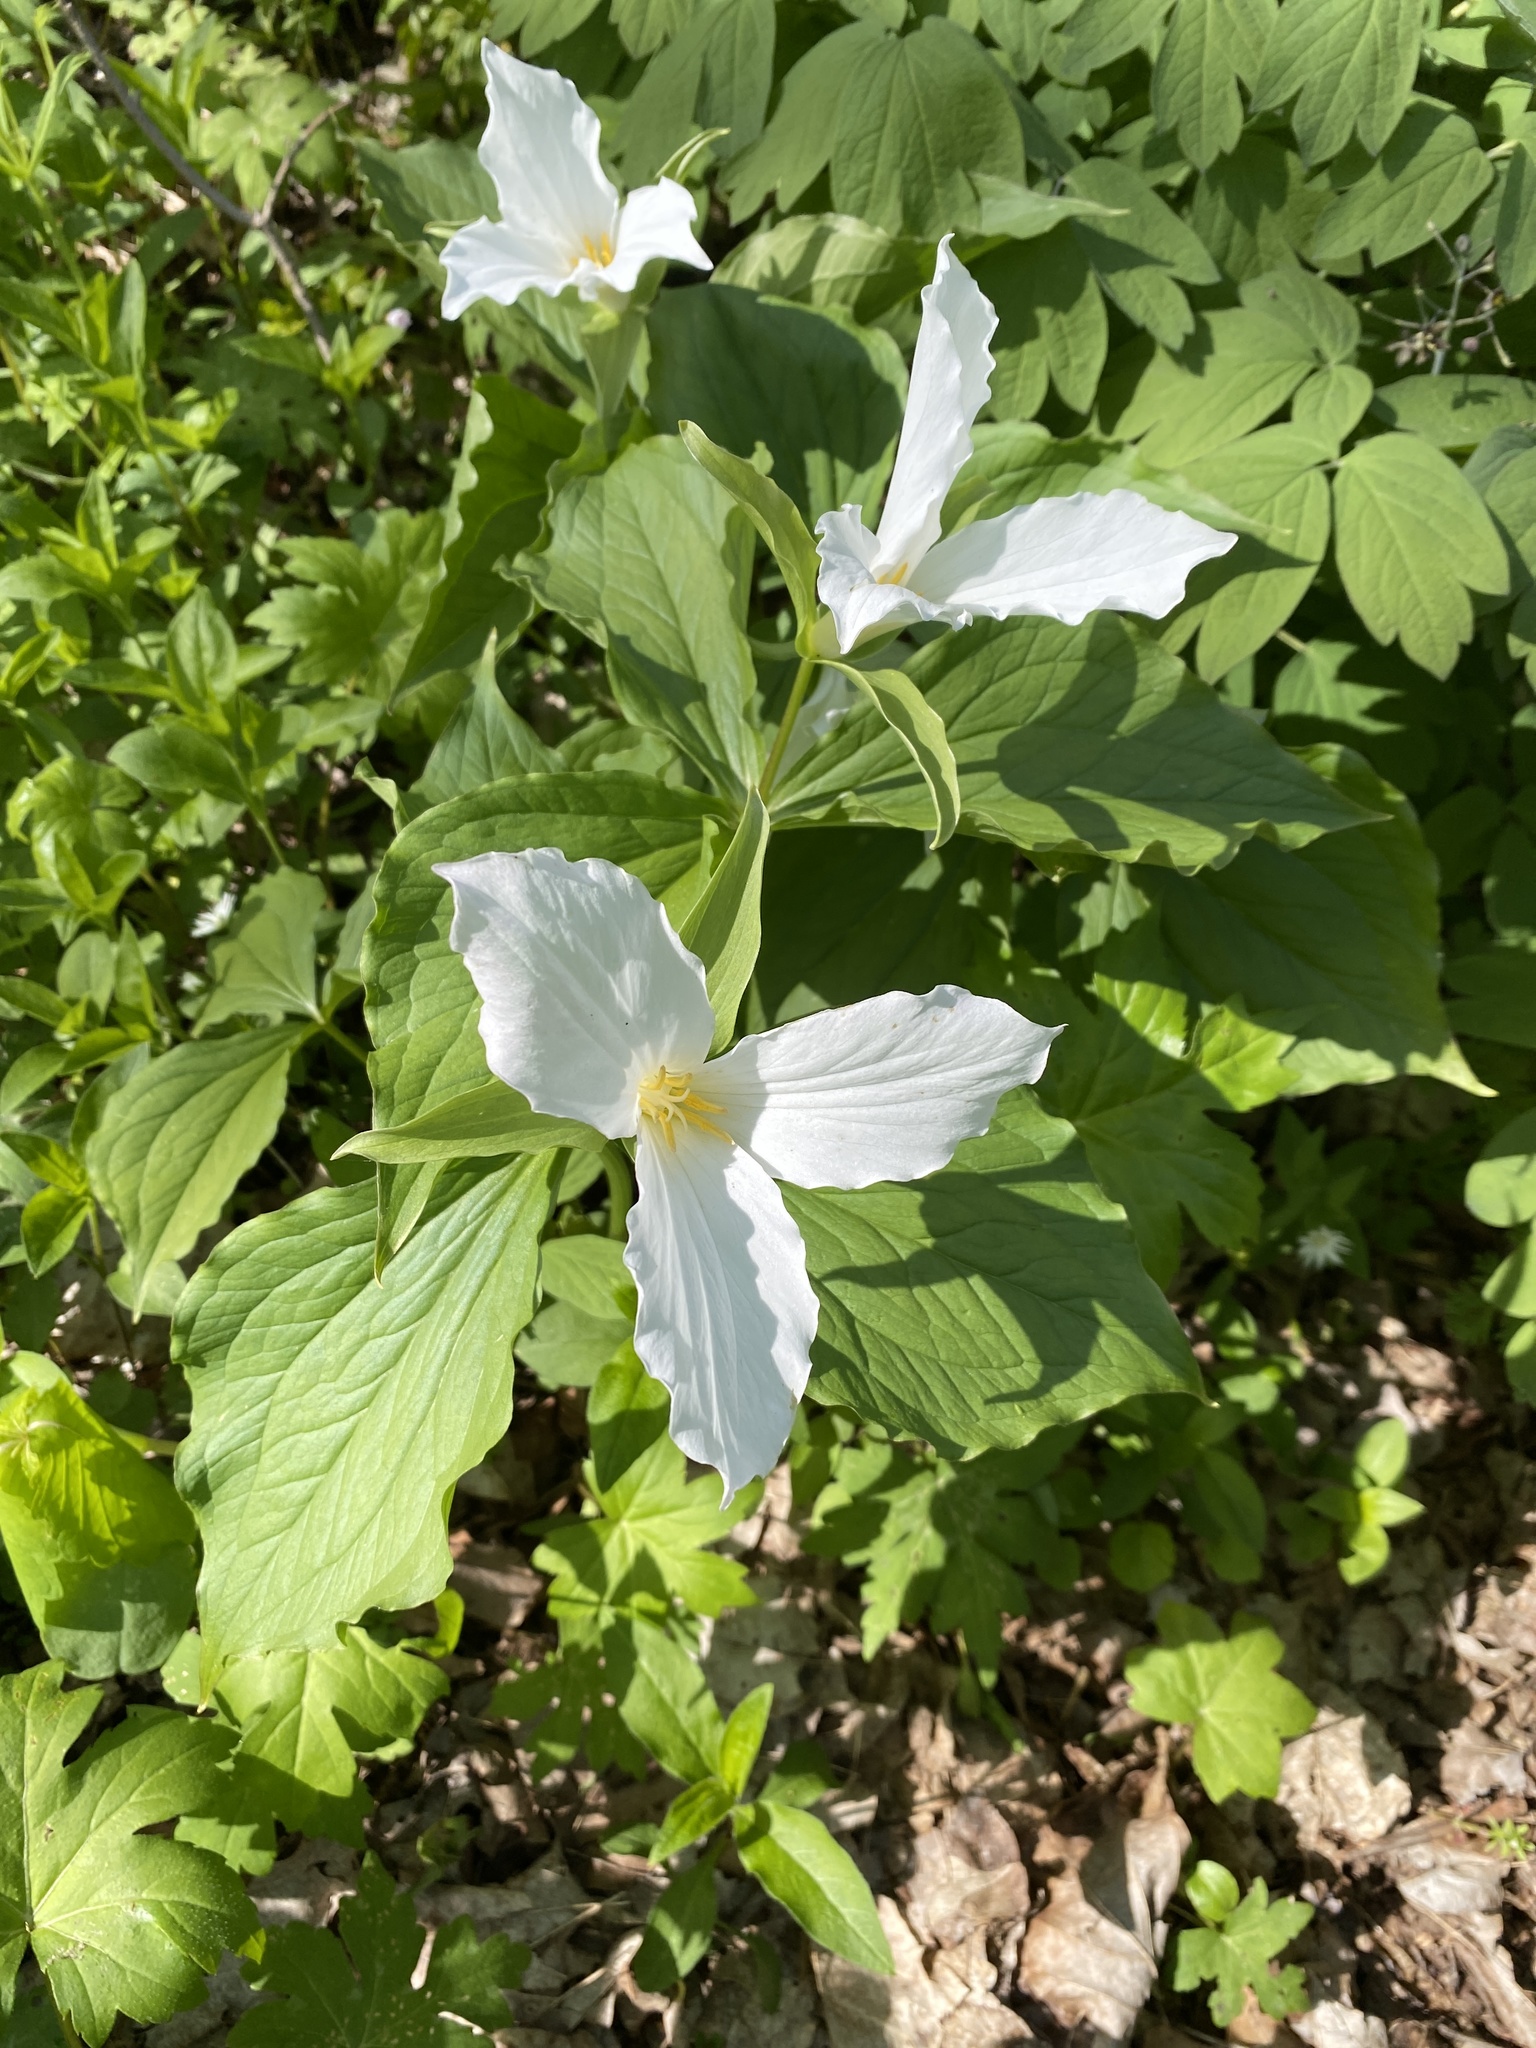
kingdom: Plantae
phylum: Tracheophyta
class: Liliopsida
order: Liliales
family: Melanthiaceae
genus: Trillium
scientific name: Trillium grandiflorum
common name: Great white trillium
